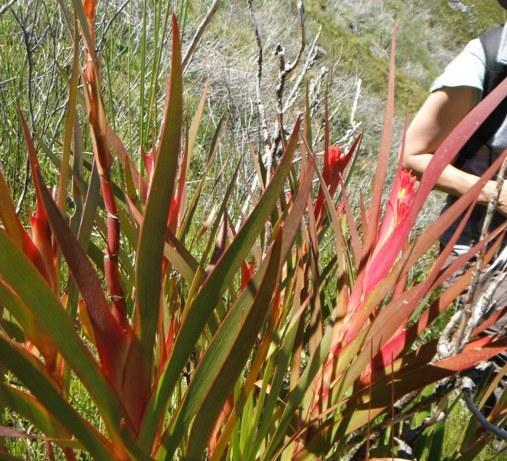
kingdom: Plantae
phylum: Tracheophyta
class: Liliopsida
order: Asparagales
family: Iridaceae
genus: Klattia
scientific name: Klattia stokoei
